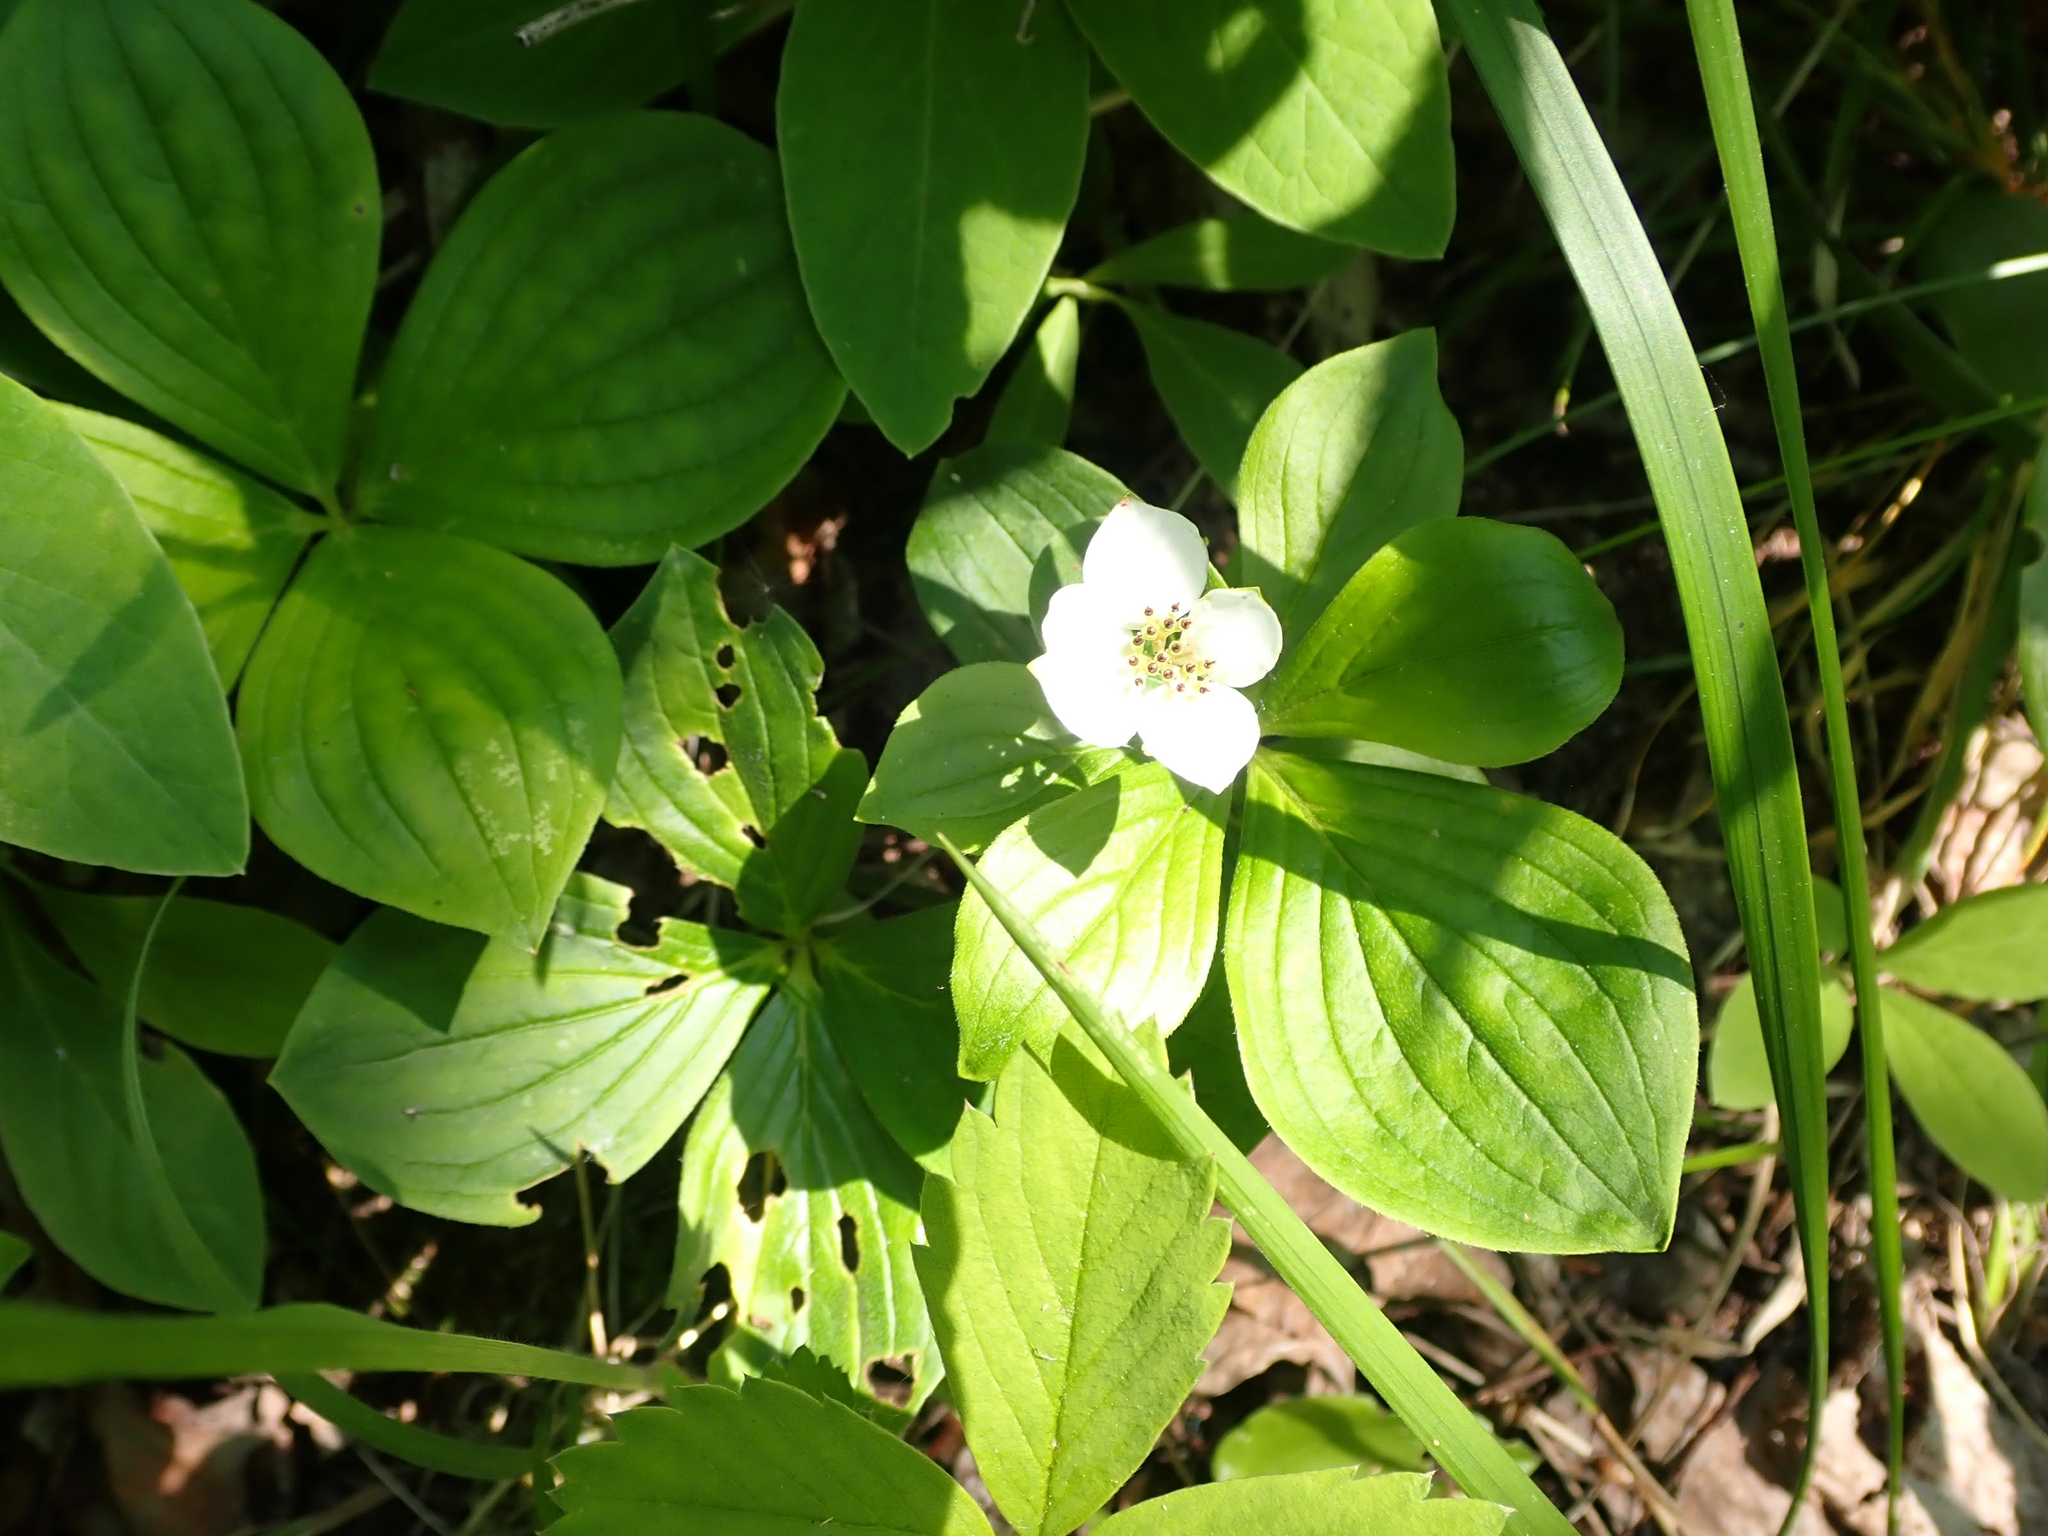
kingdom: Plantae
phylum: Tracheophyta
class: Magnoliopsida
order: Cornales
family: Cornaceae
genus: Cornus
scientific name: Cornus canadensis
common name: Creeping dogwood
